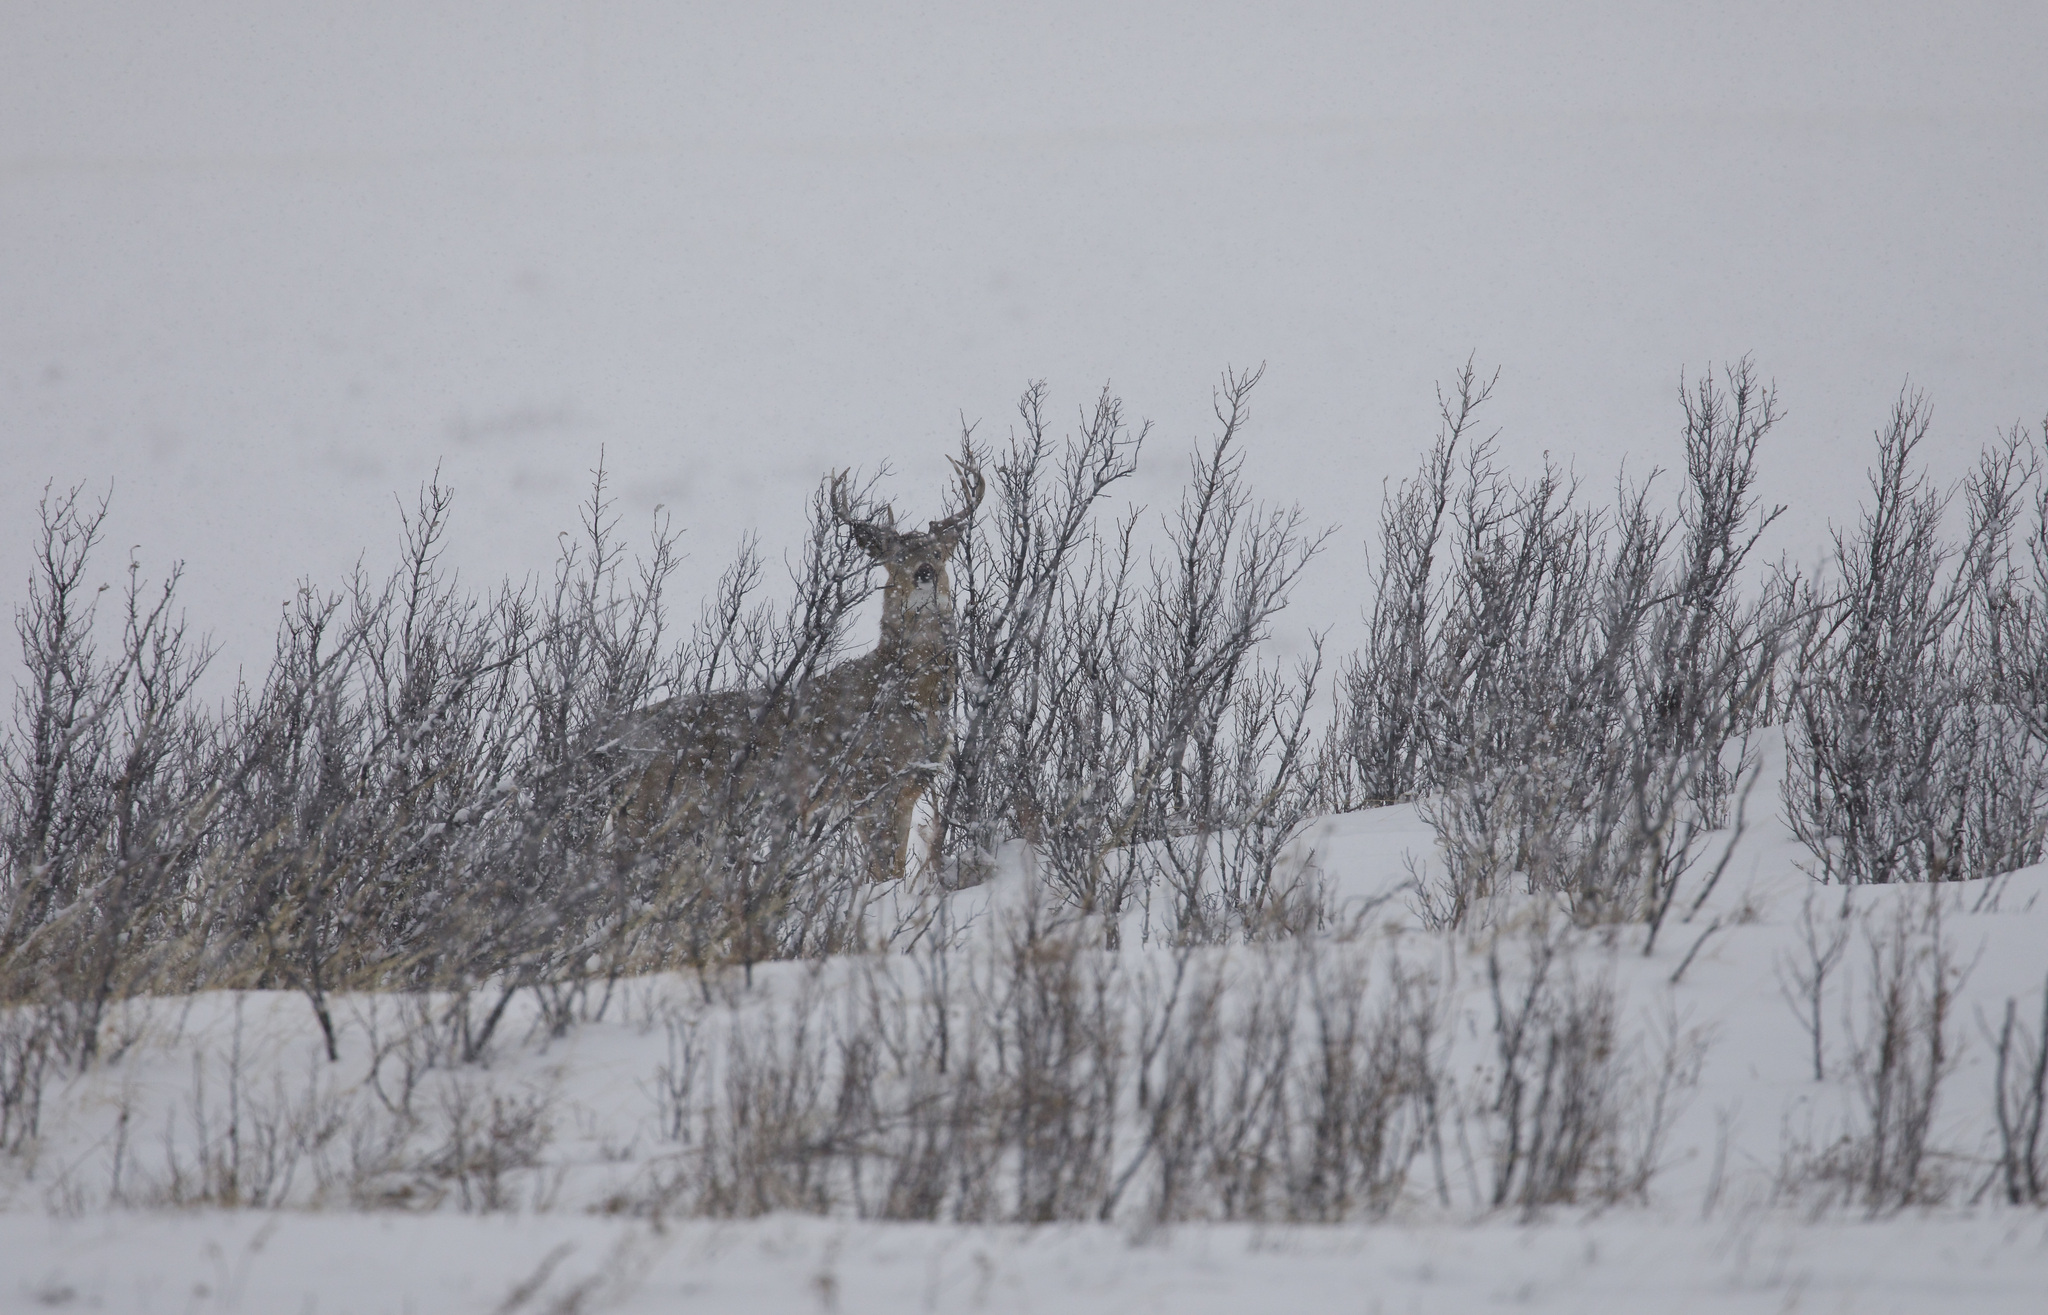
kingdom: Animalia
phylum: Chordata
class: Mammalia
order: Artiodactyla
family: Cervidae
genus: Odocoileus
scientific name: Odocoileus virginianus
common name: White-tailed deer
